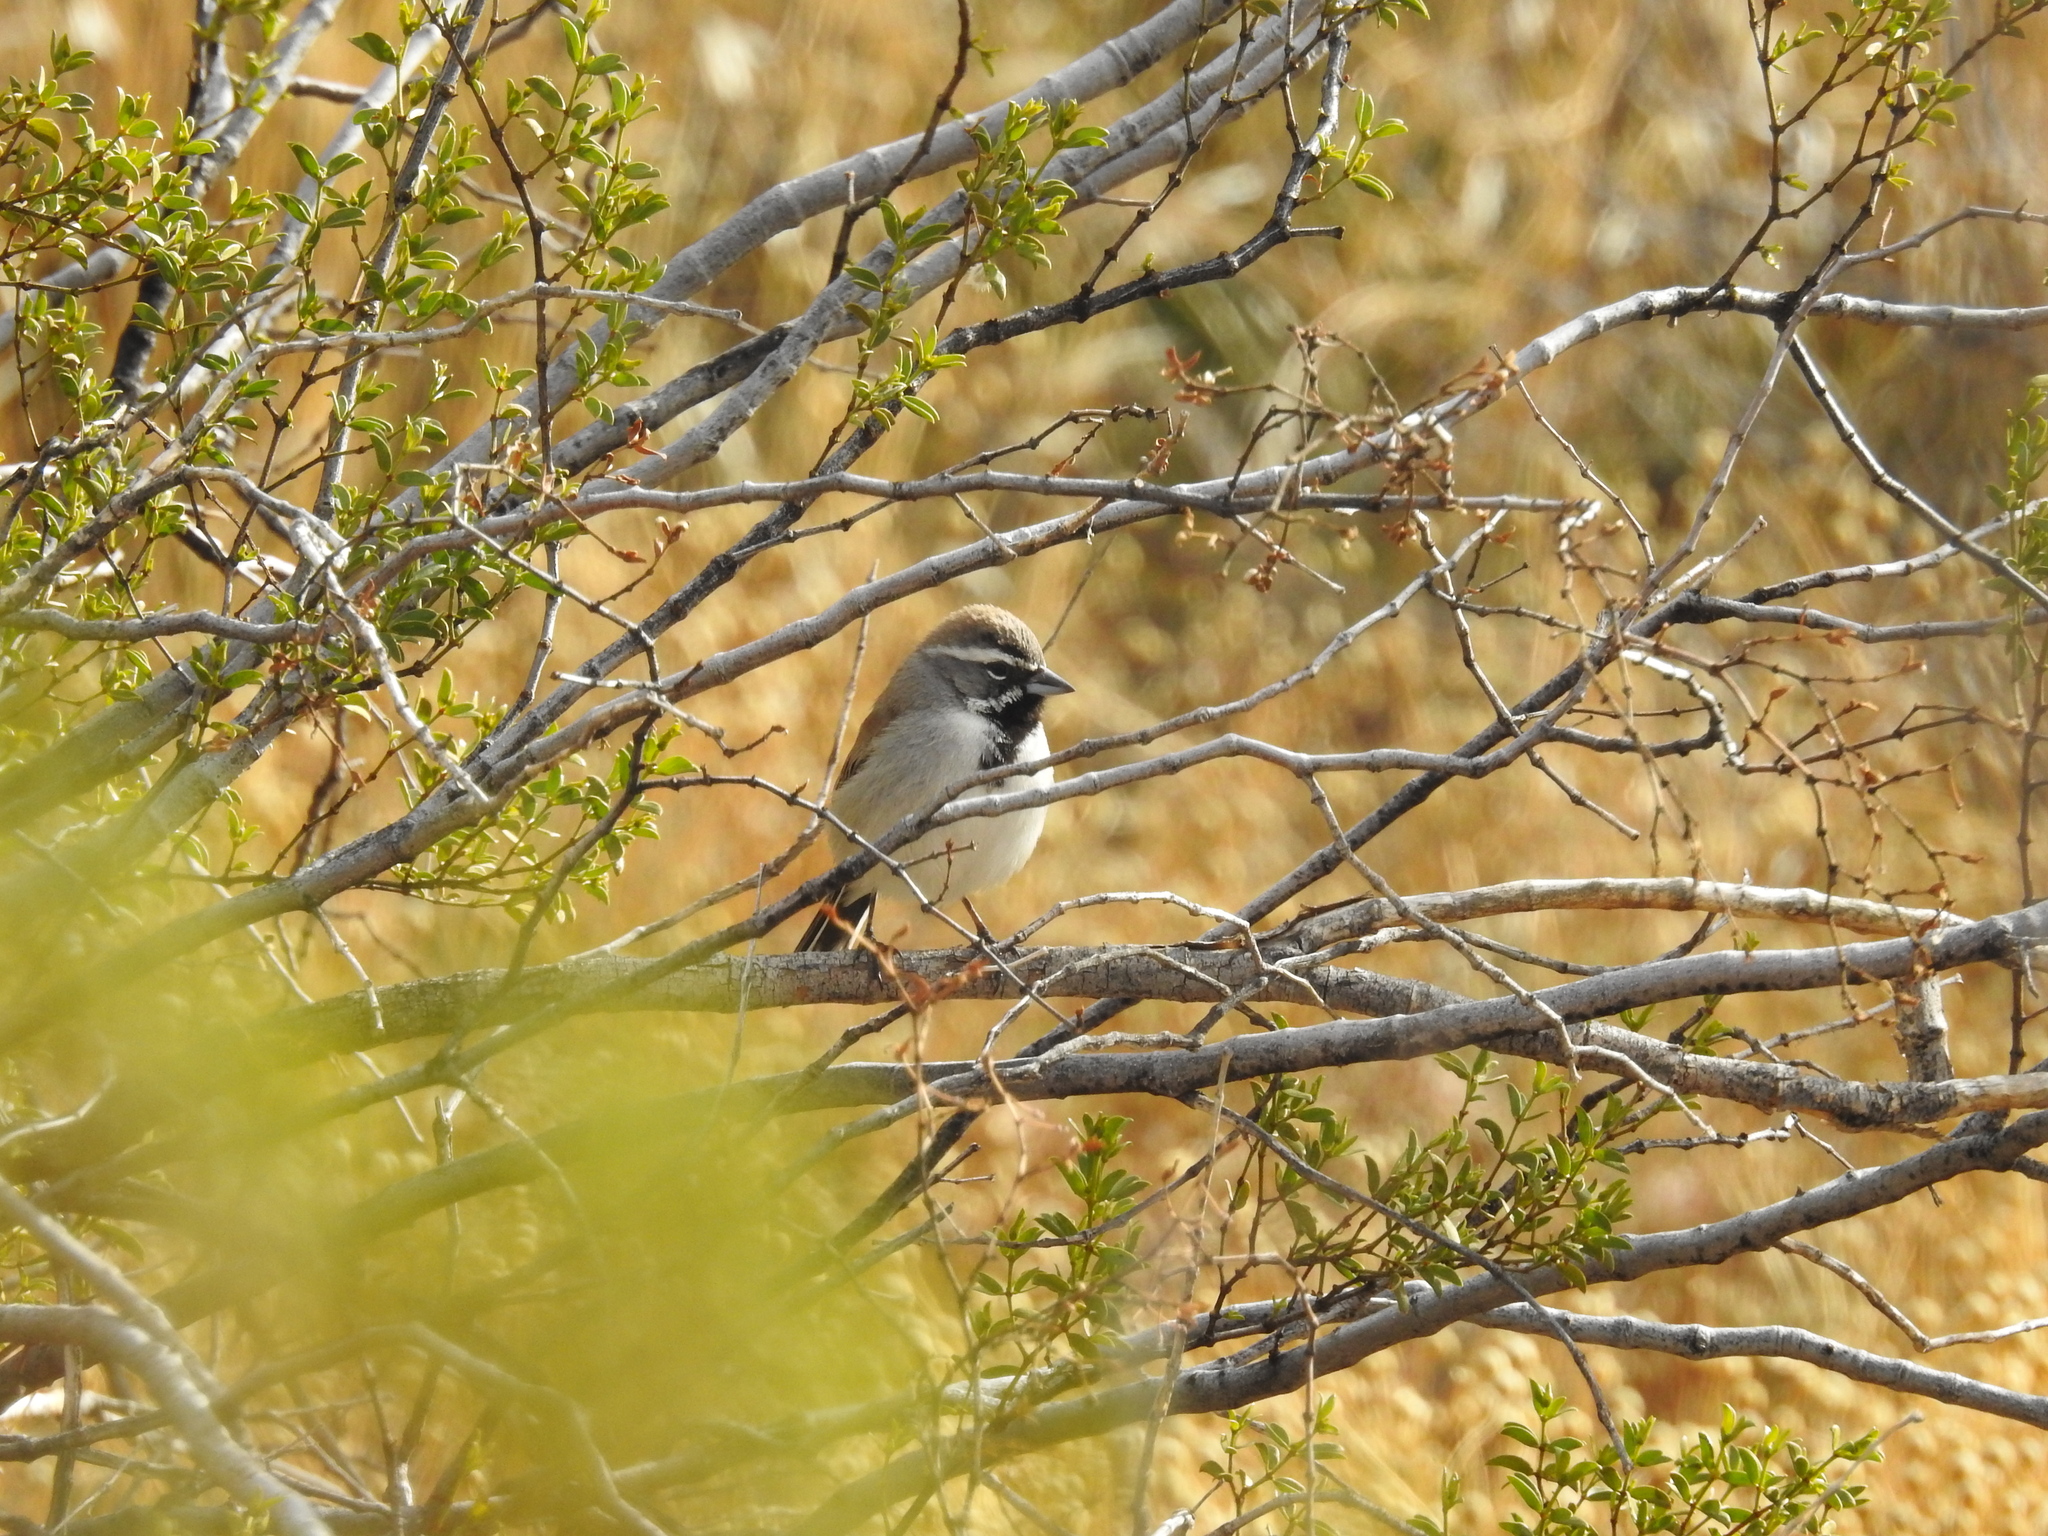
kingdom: Animalia
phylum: Chordata
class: Aves
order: Passeriformes
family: Passerellidae
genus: Amphispiza
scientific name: Amphispiza bilineata
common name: Black-throated sparrow
